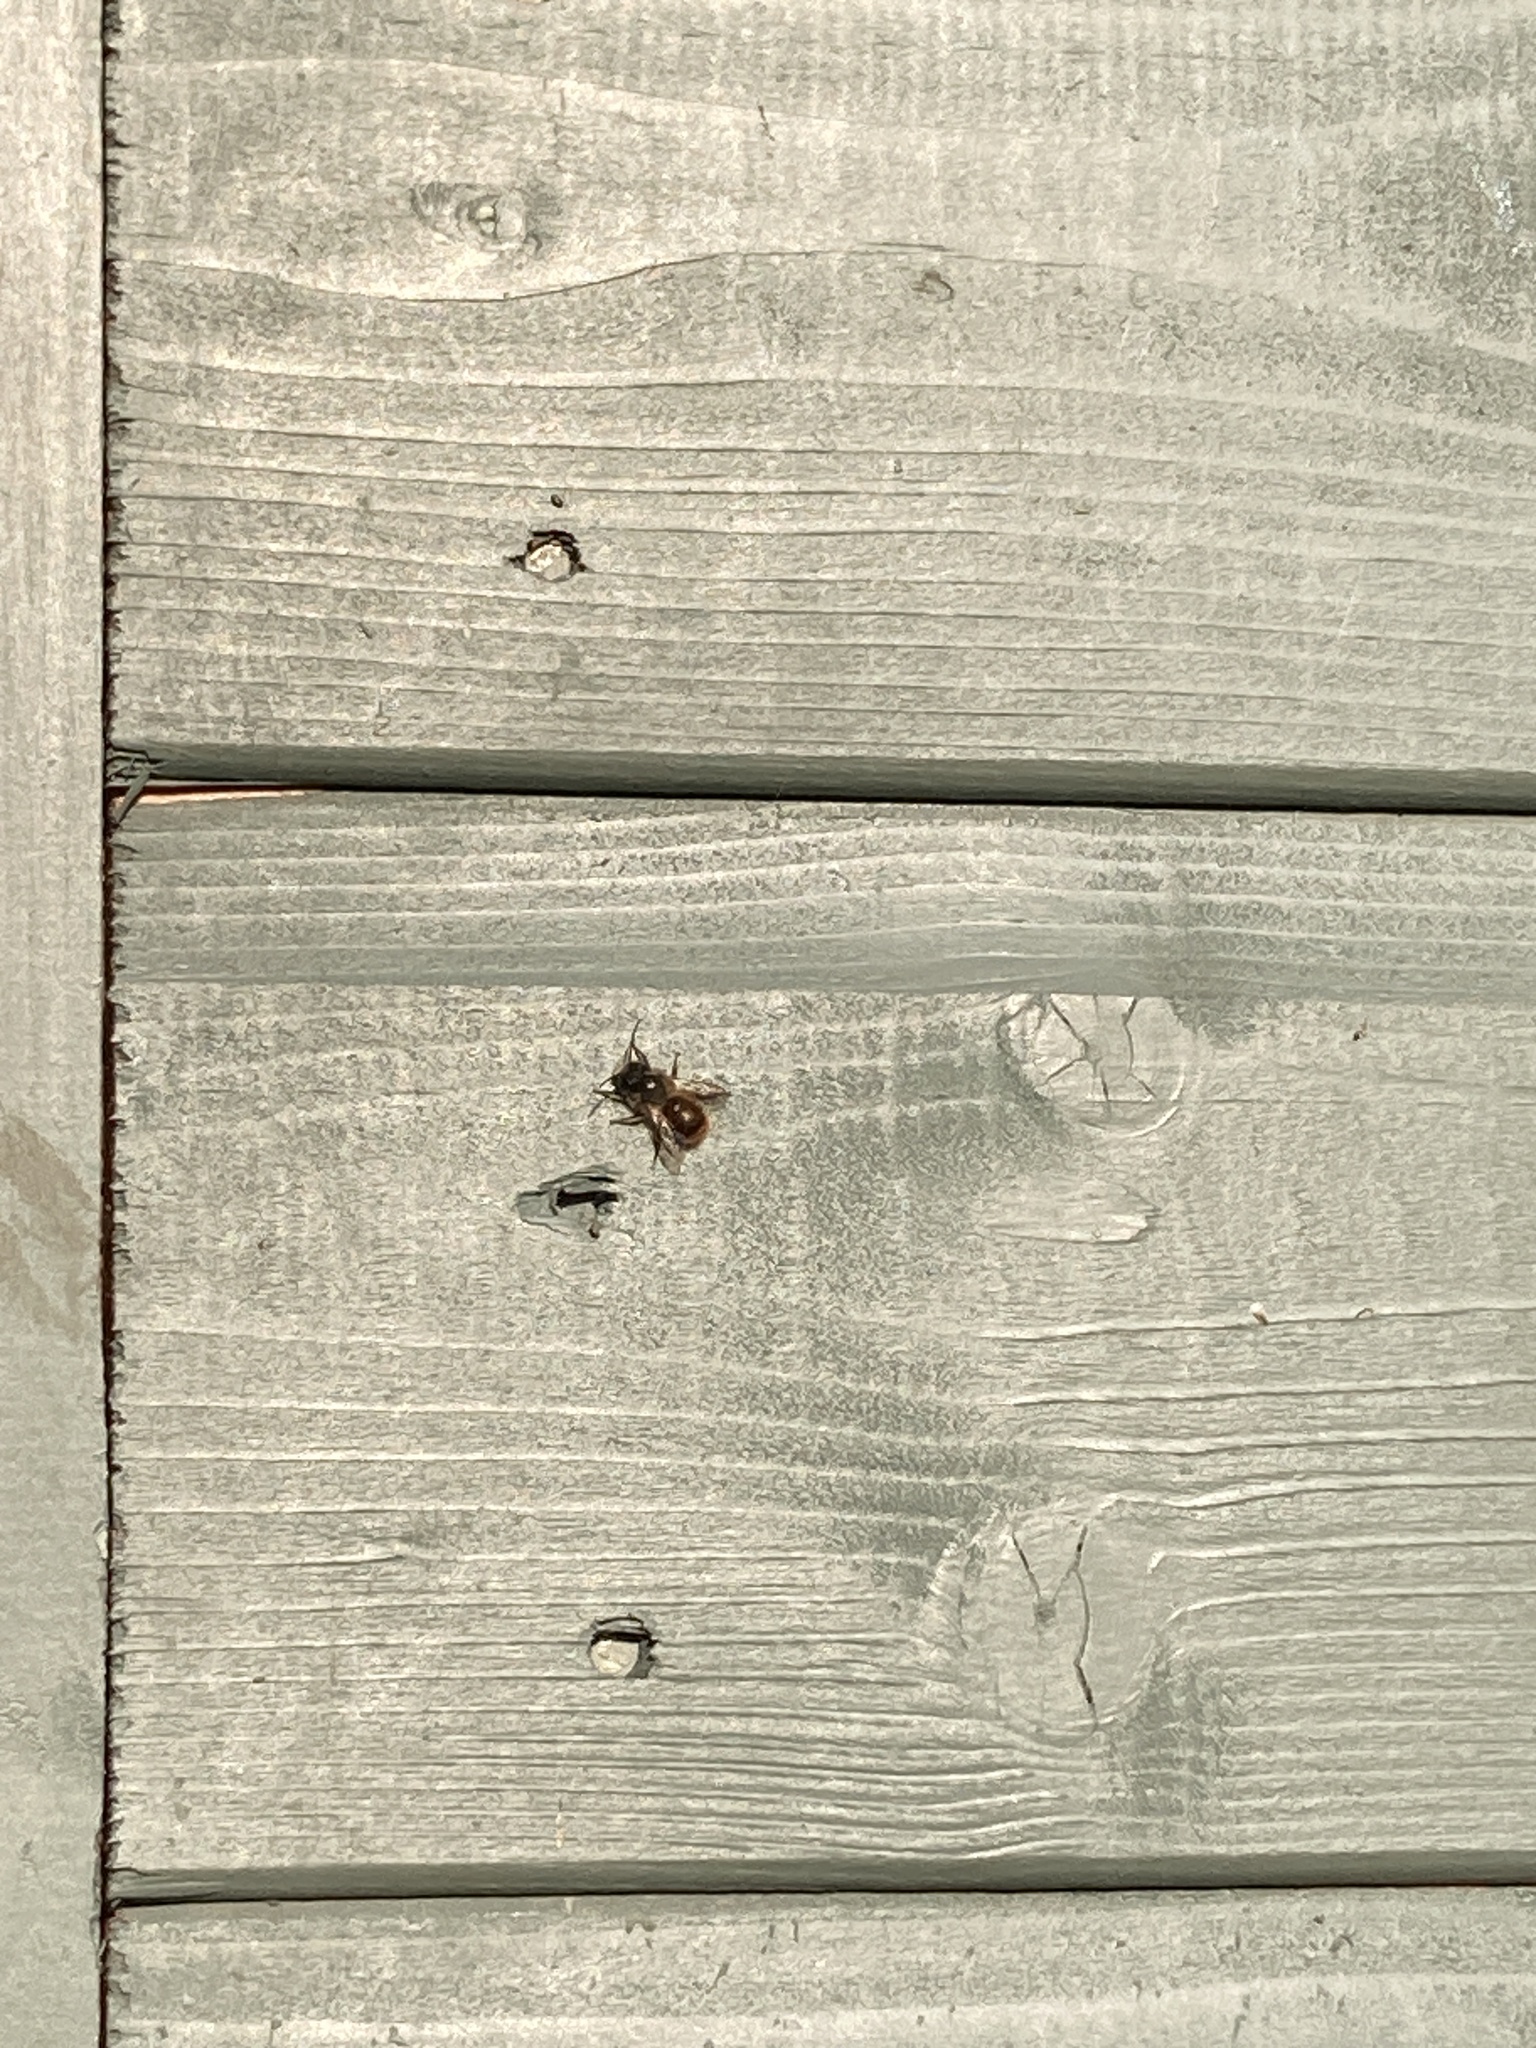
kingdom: Animalia
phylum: Arthropoda
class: Insecta
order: Hymenoptera
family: Megachilidae
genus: Osmia
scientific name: Osmia bicornis
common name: Red mason bee
